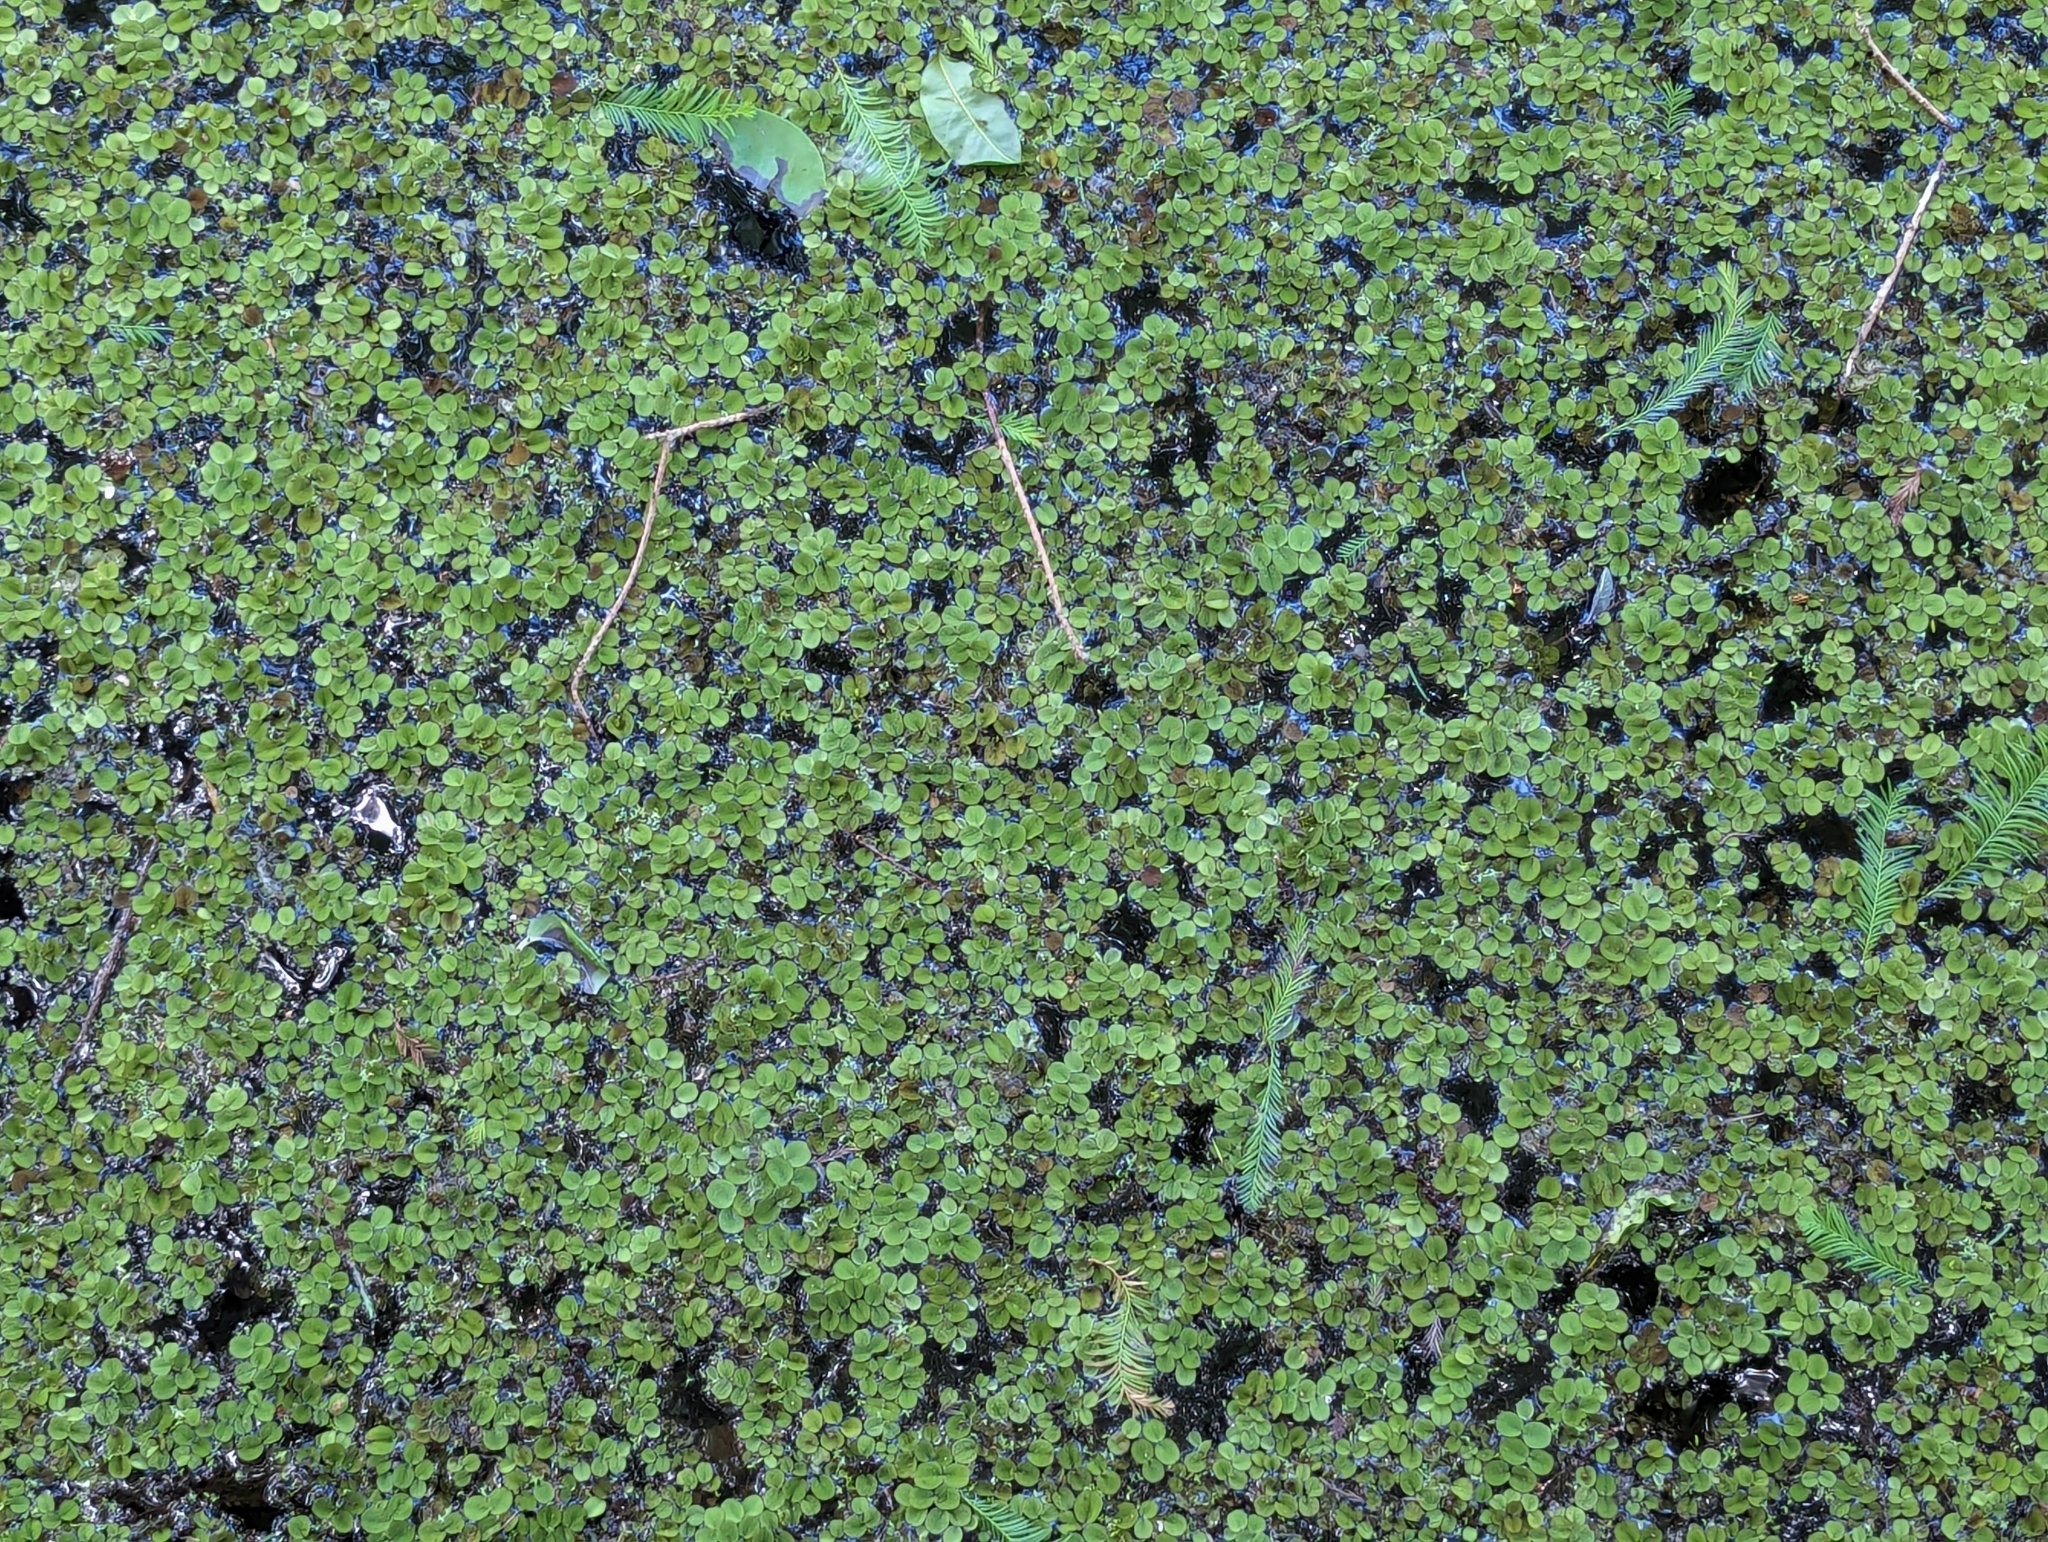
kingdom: Plantae
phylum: Tracheophyta
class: Polypodiopsida
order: Salviniales
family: Salviniaceae
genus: Salvinia
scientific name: Salvinia minima
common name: Water spangles
